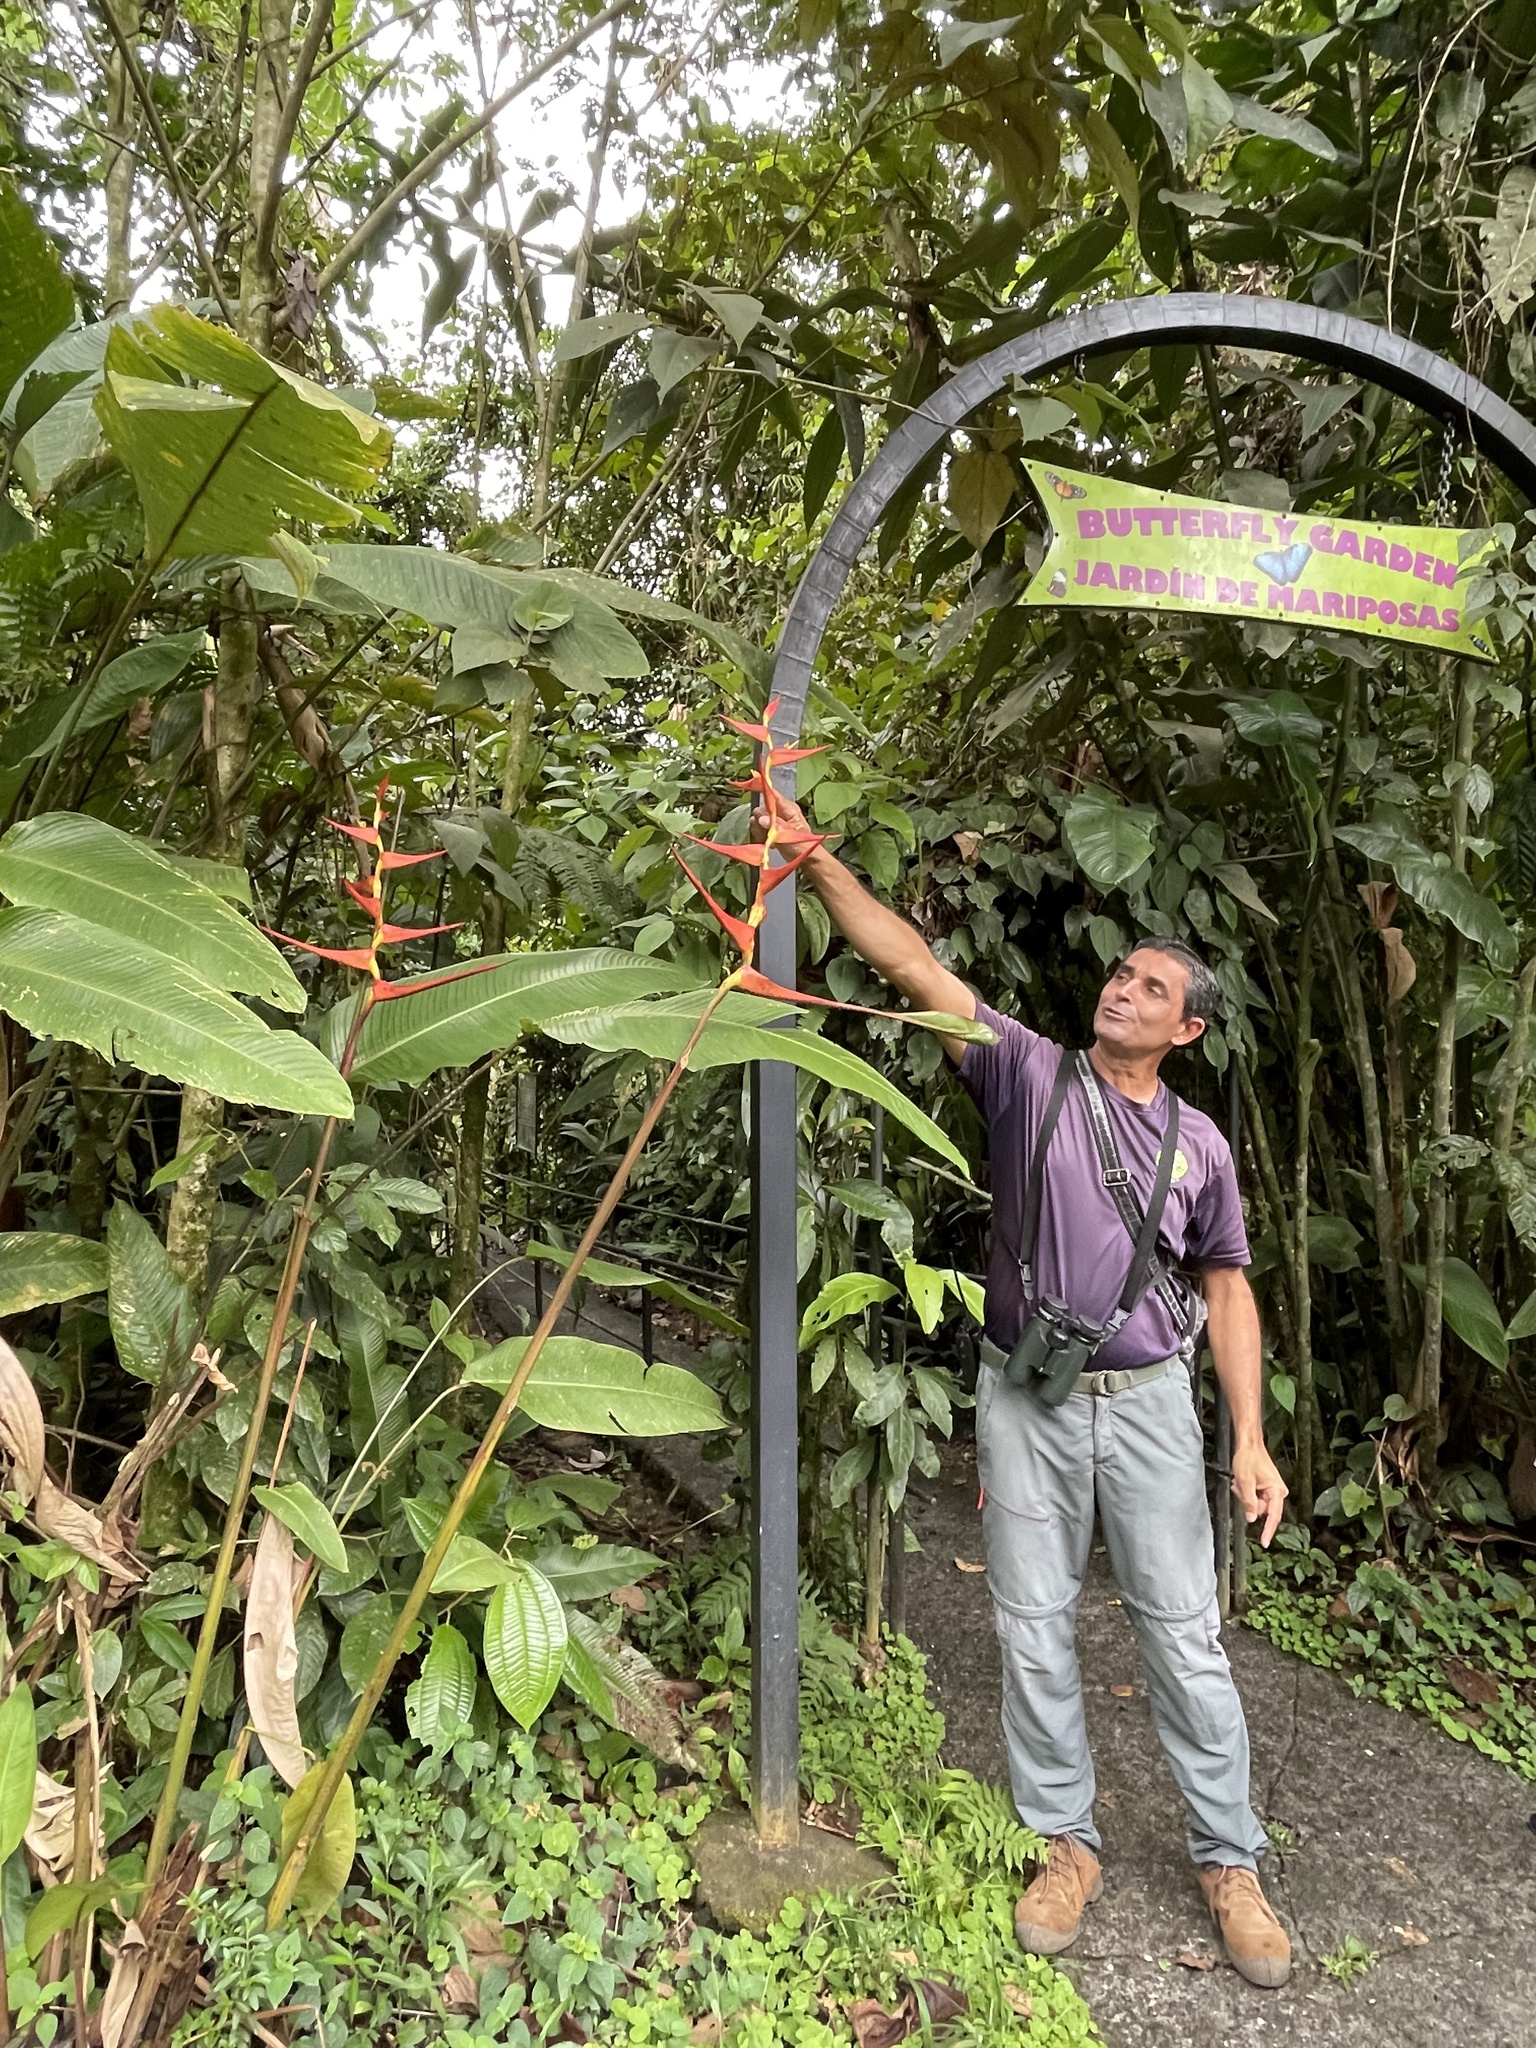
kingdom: Plantae
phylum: Tracheophyta
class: Liliopsida
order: Zingiberales
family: Heliconiaceae
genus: Heliconia
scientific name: Heliconia sarapiquensis
